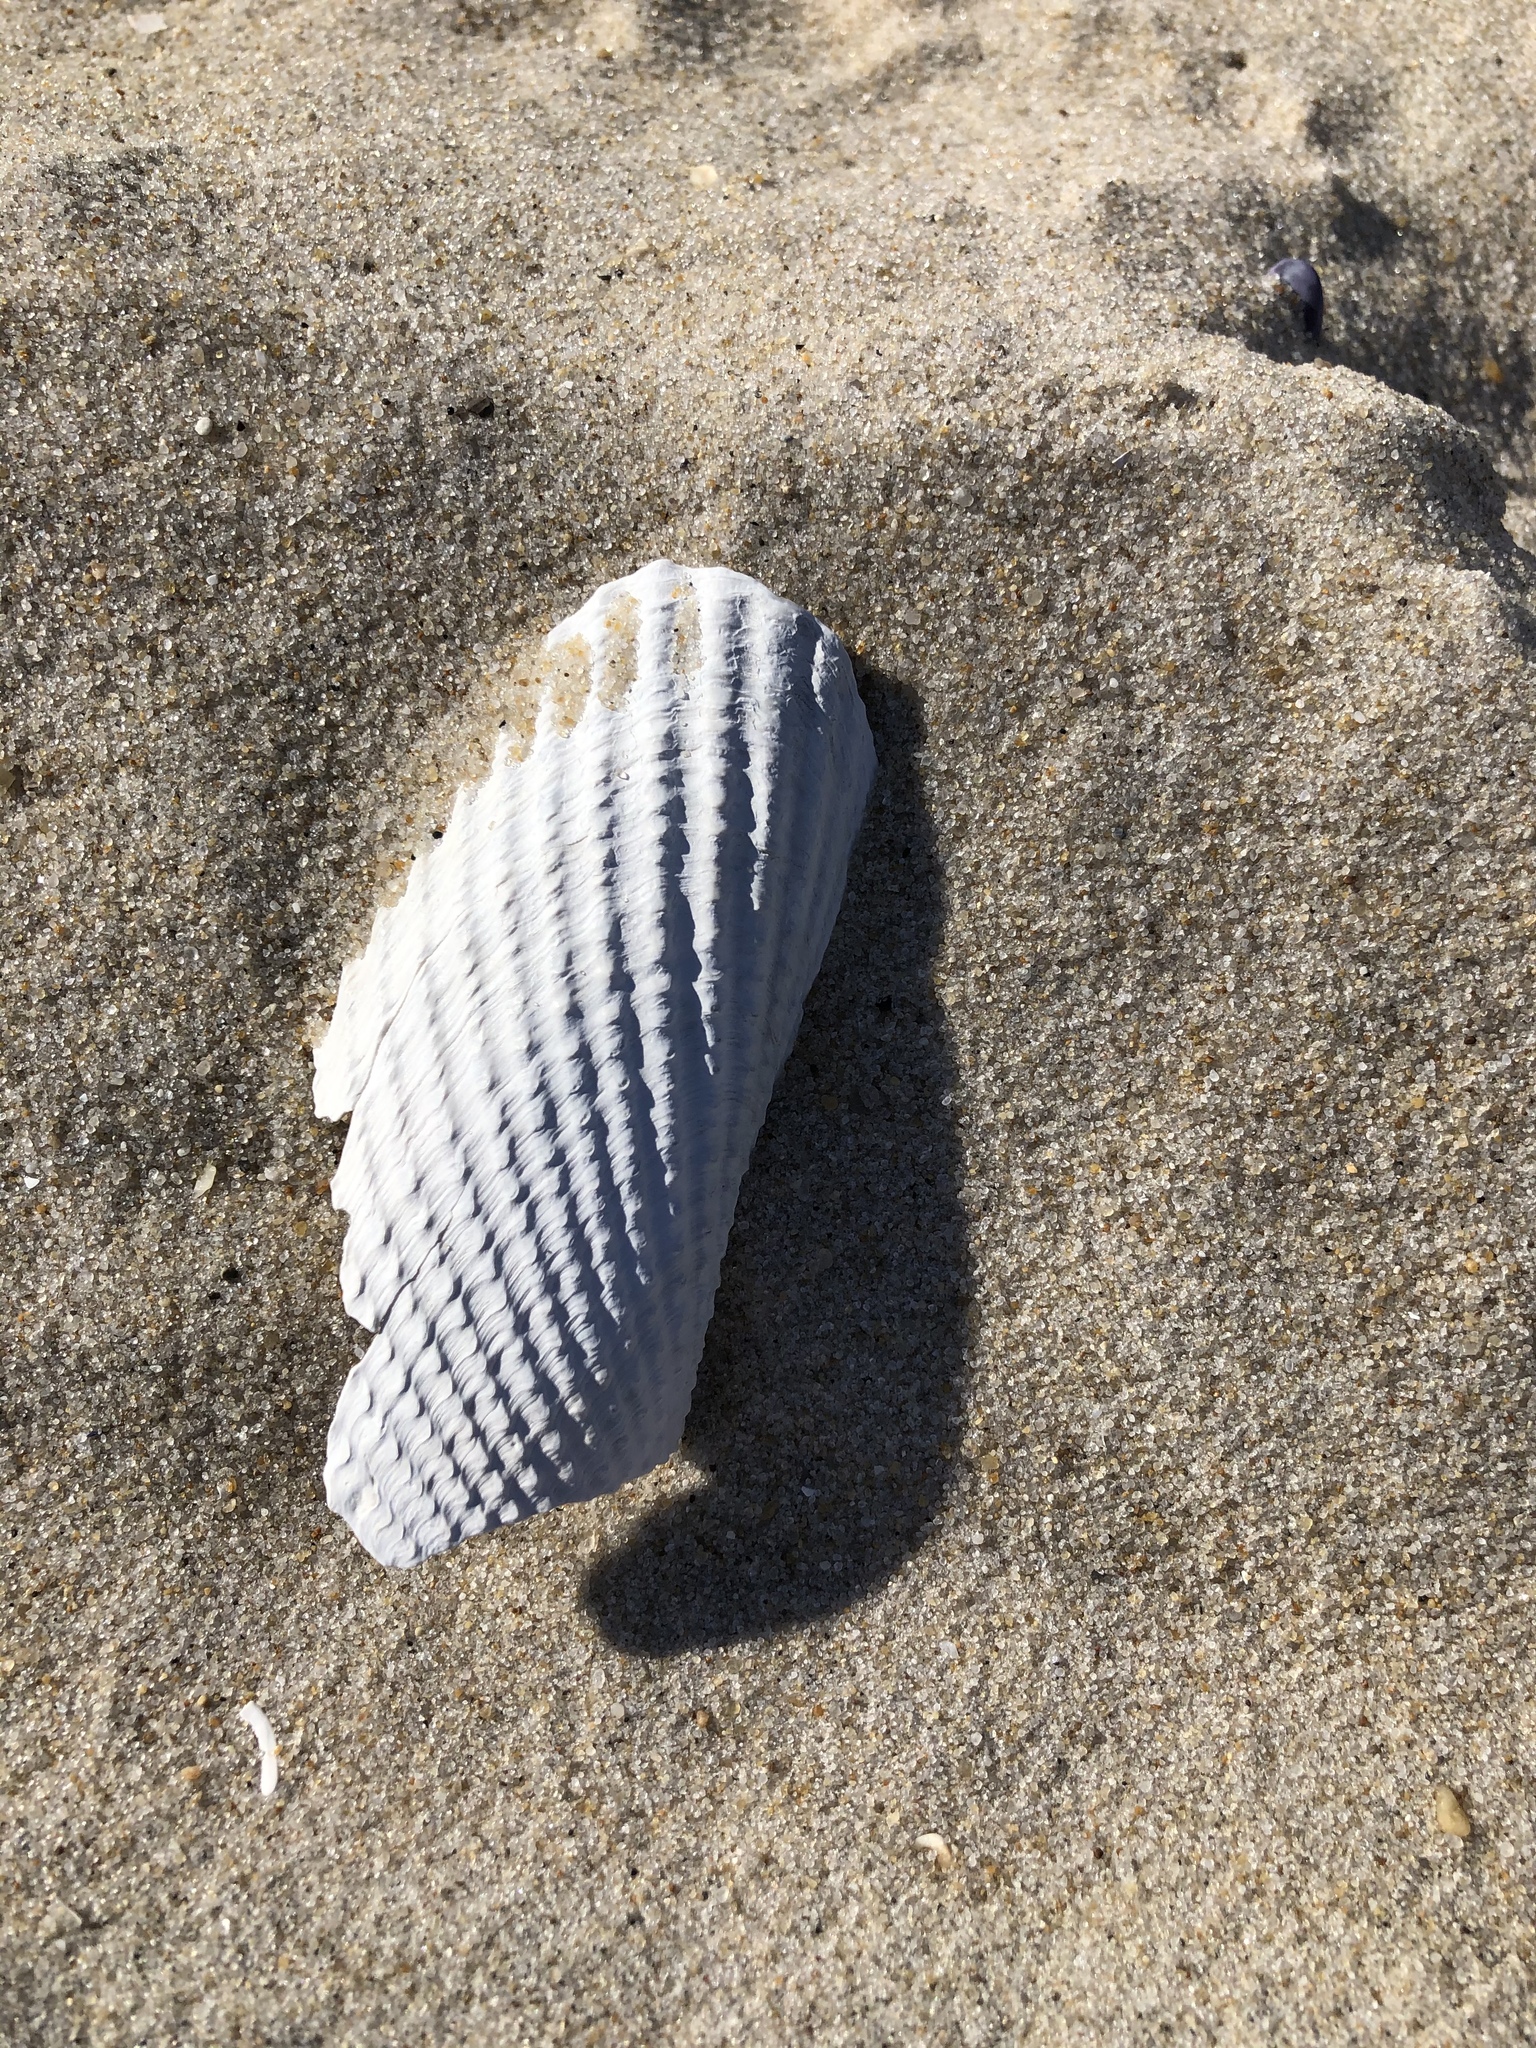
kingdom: Animalia
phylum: Mollusca
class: Bivalvia
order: Myida
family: Pholadidae
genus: Cyrtopleura
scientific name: Cyrtopleura costata
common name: Angel wing
